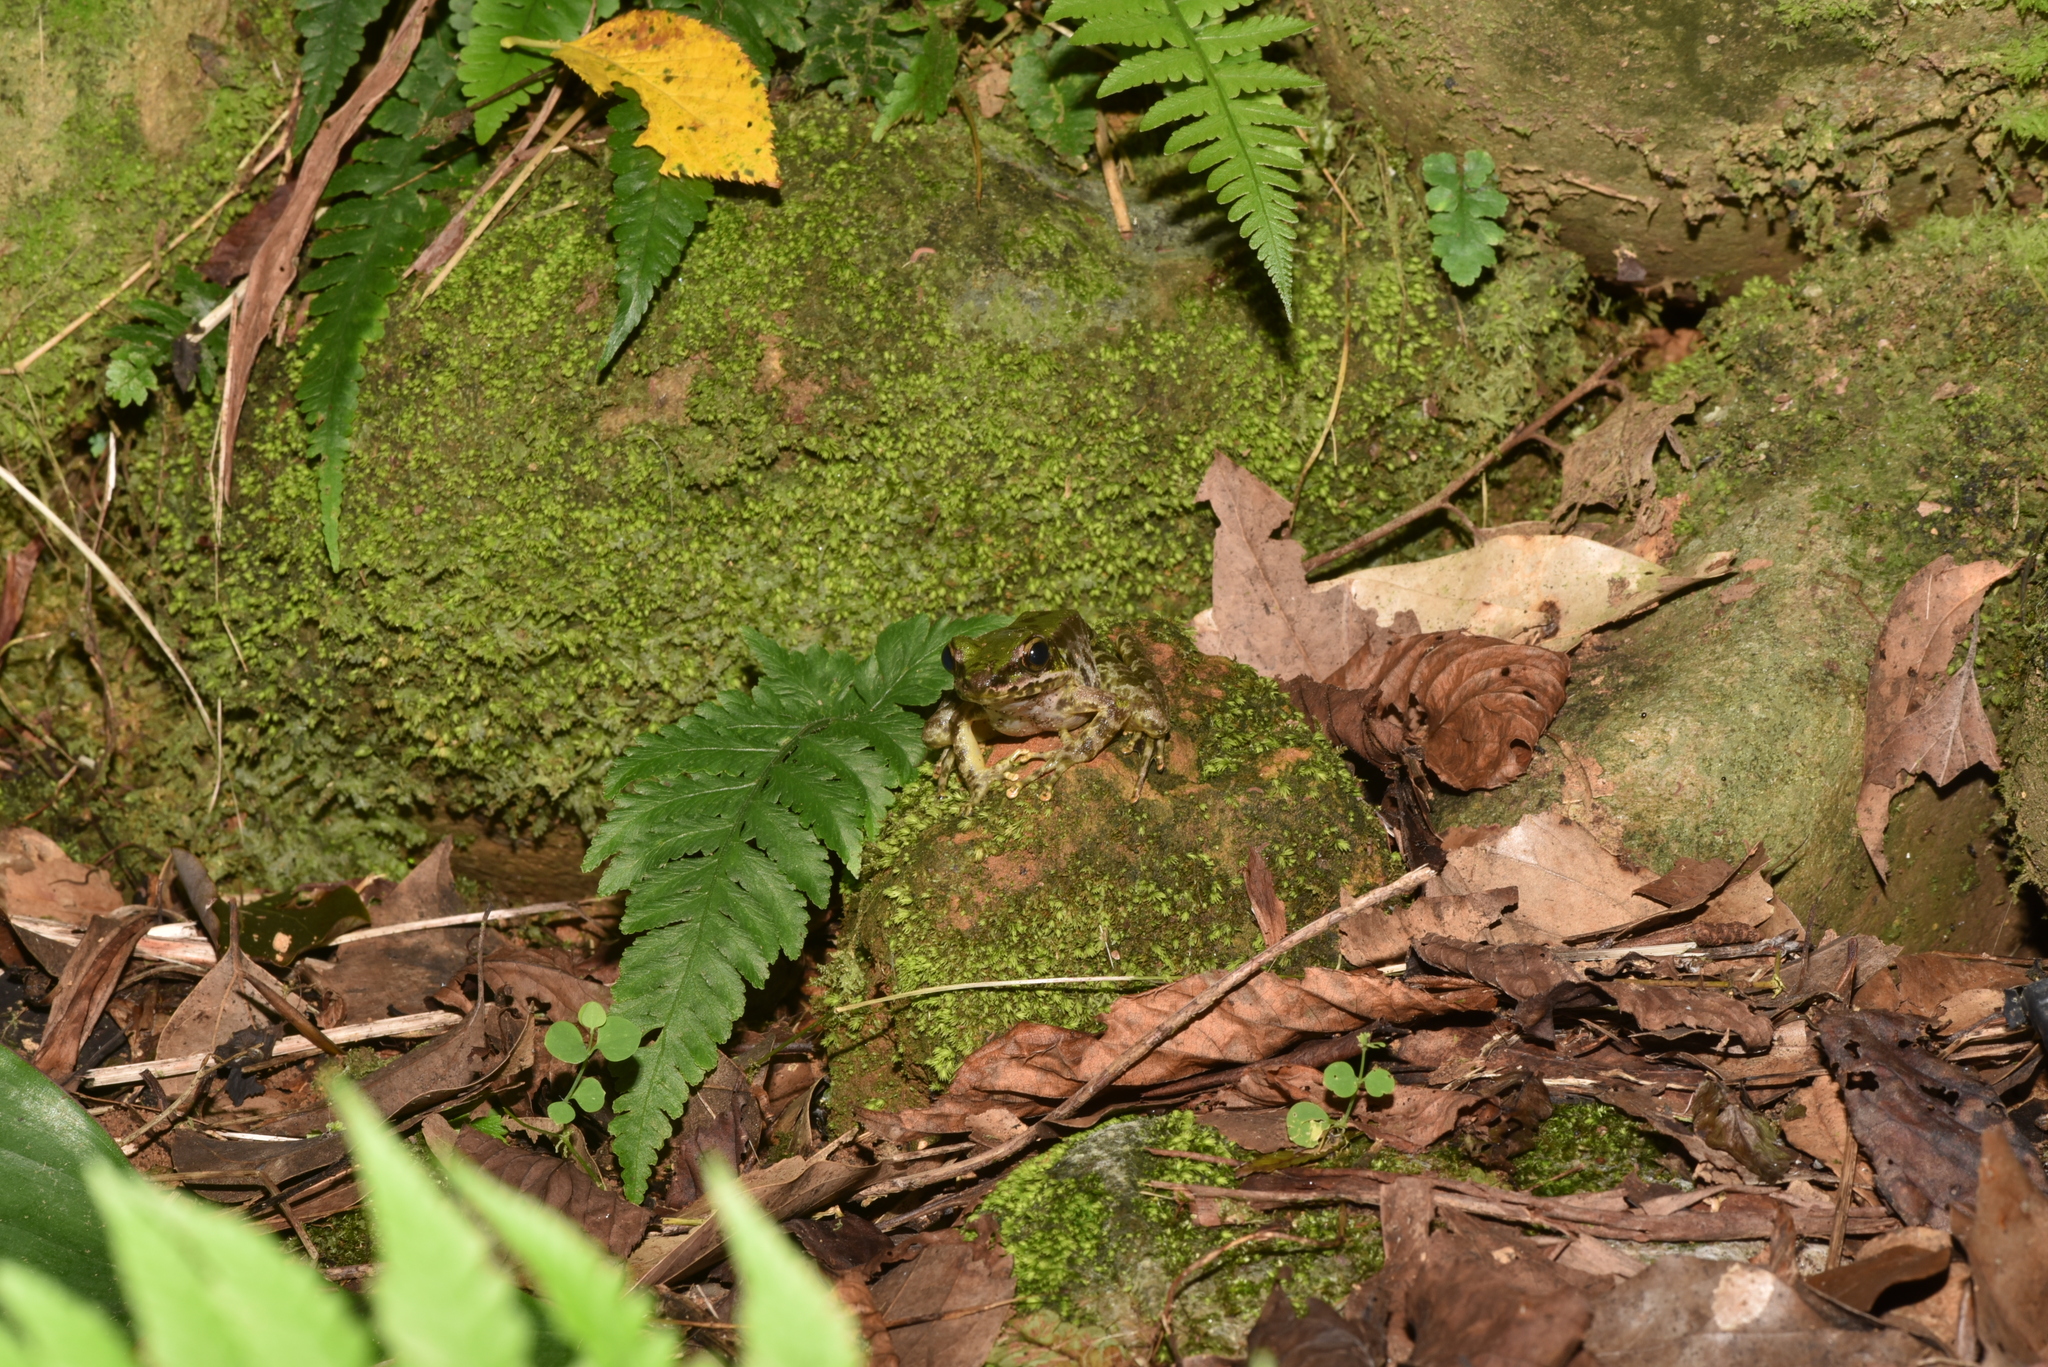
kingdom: Animalia
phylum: Chordata
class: Amphibia
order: Anura
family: Ranidae
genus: Odorrana
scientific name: Odorrana swinhoana
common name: Bangkimtsing frog
